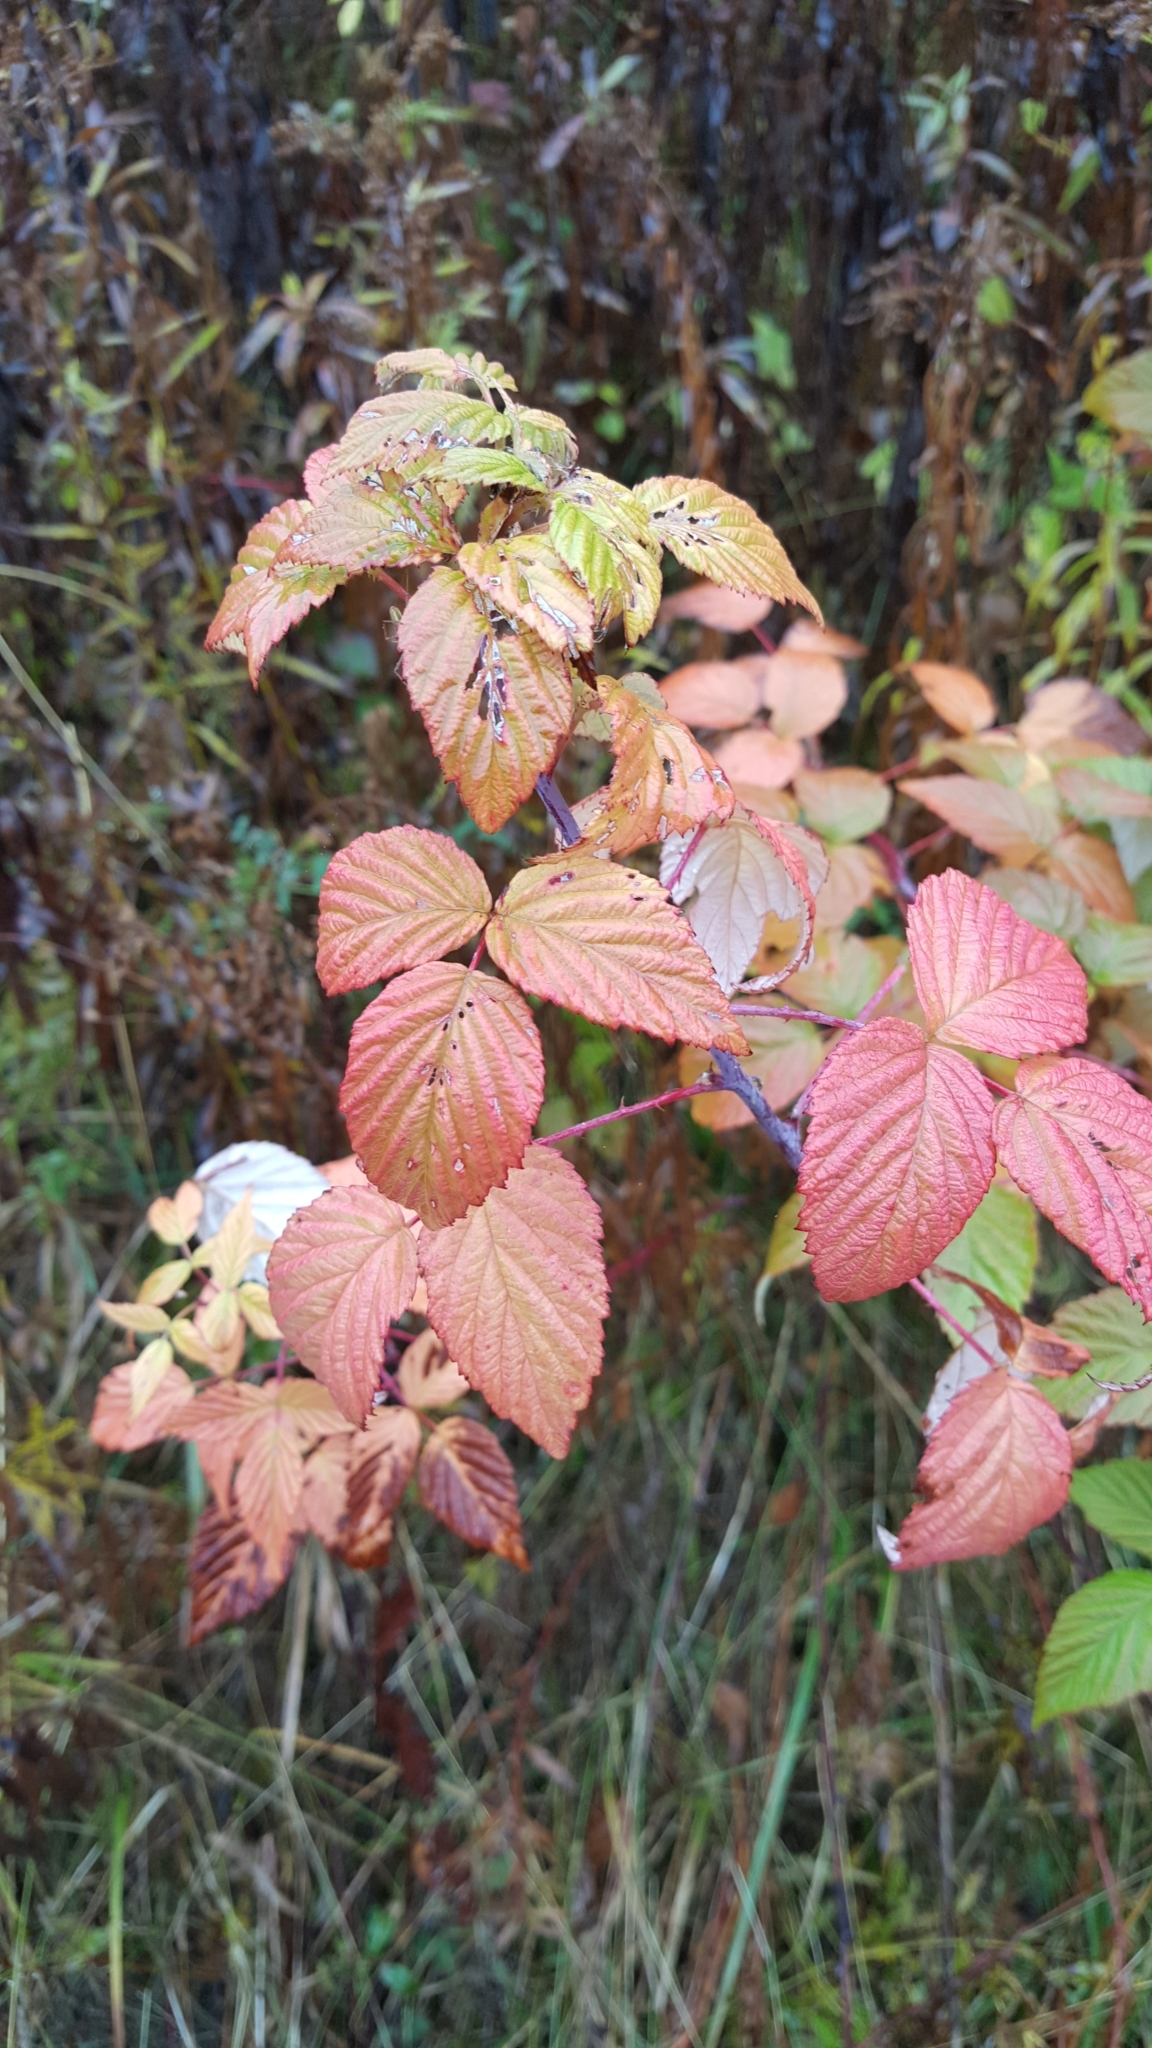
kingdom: Plantae
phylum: Tracheophyta
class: Magnoliopsida
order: Rosales
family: Rosaceae
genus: Rubus
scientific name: Rubus occidentalis
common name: Black raspberry
